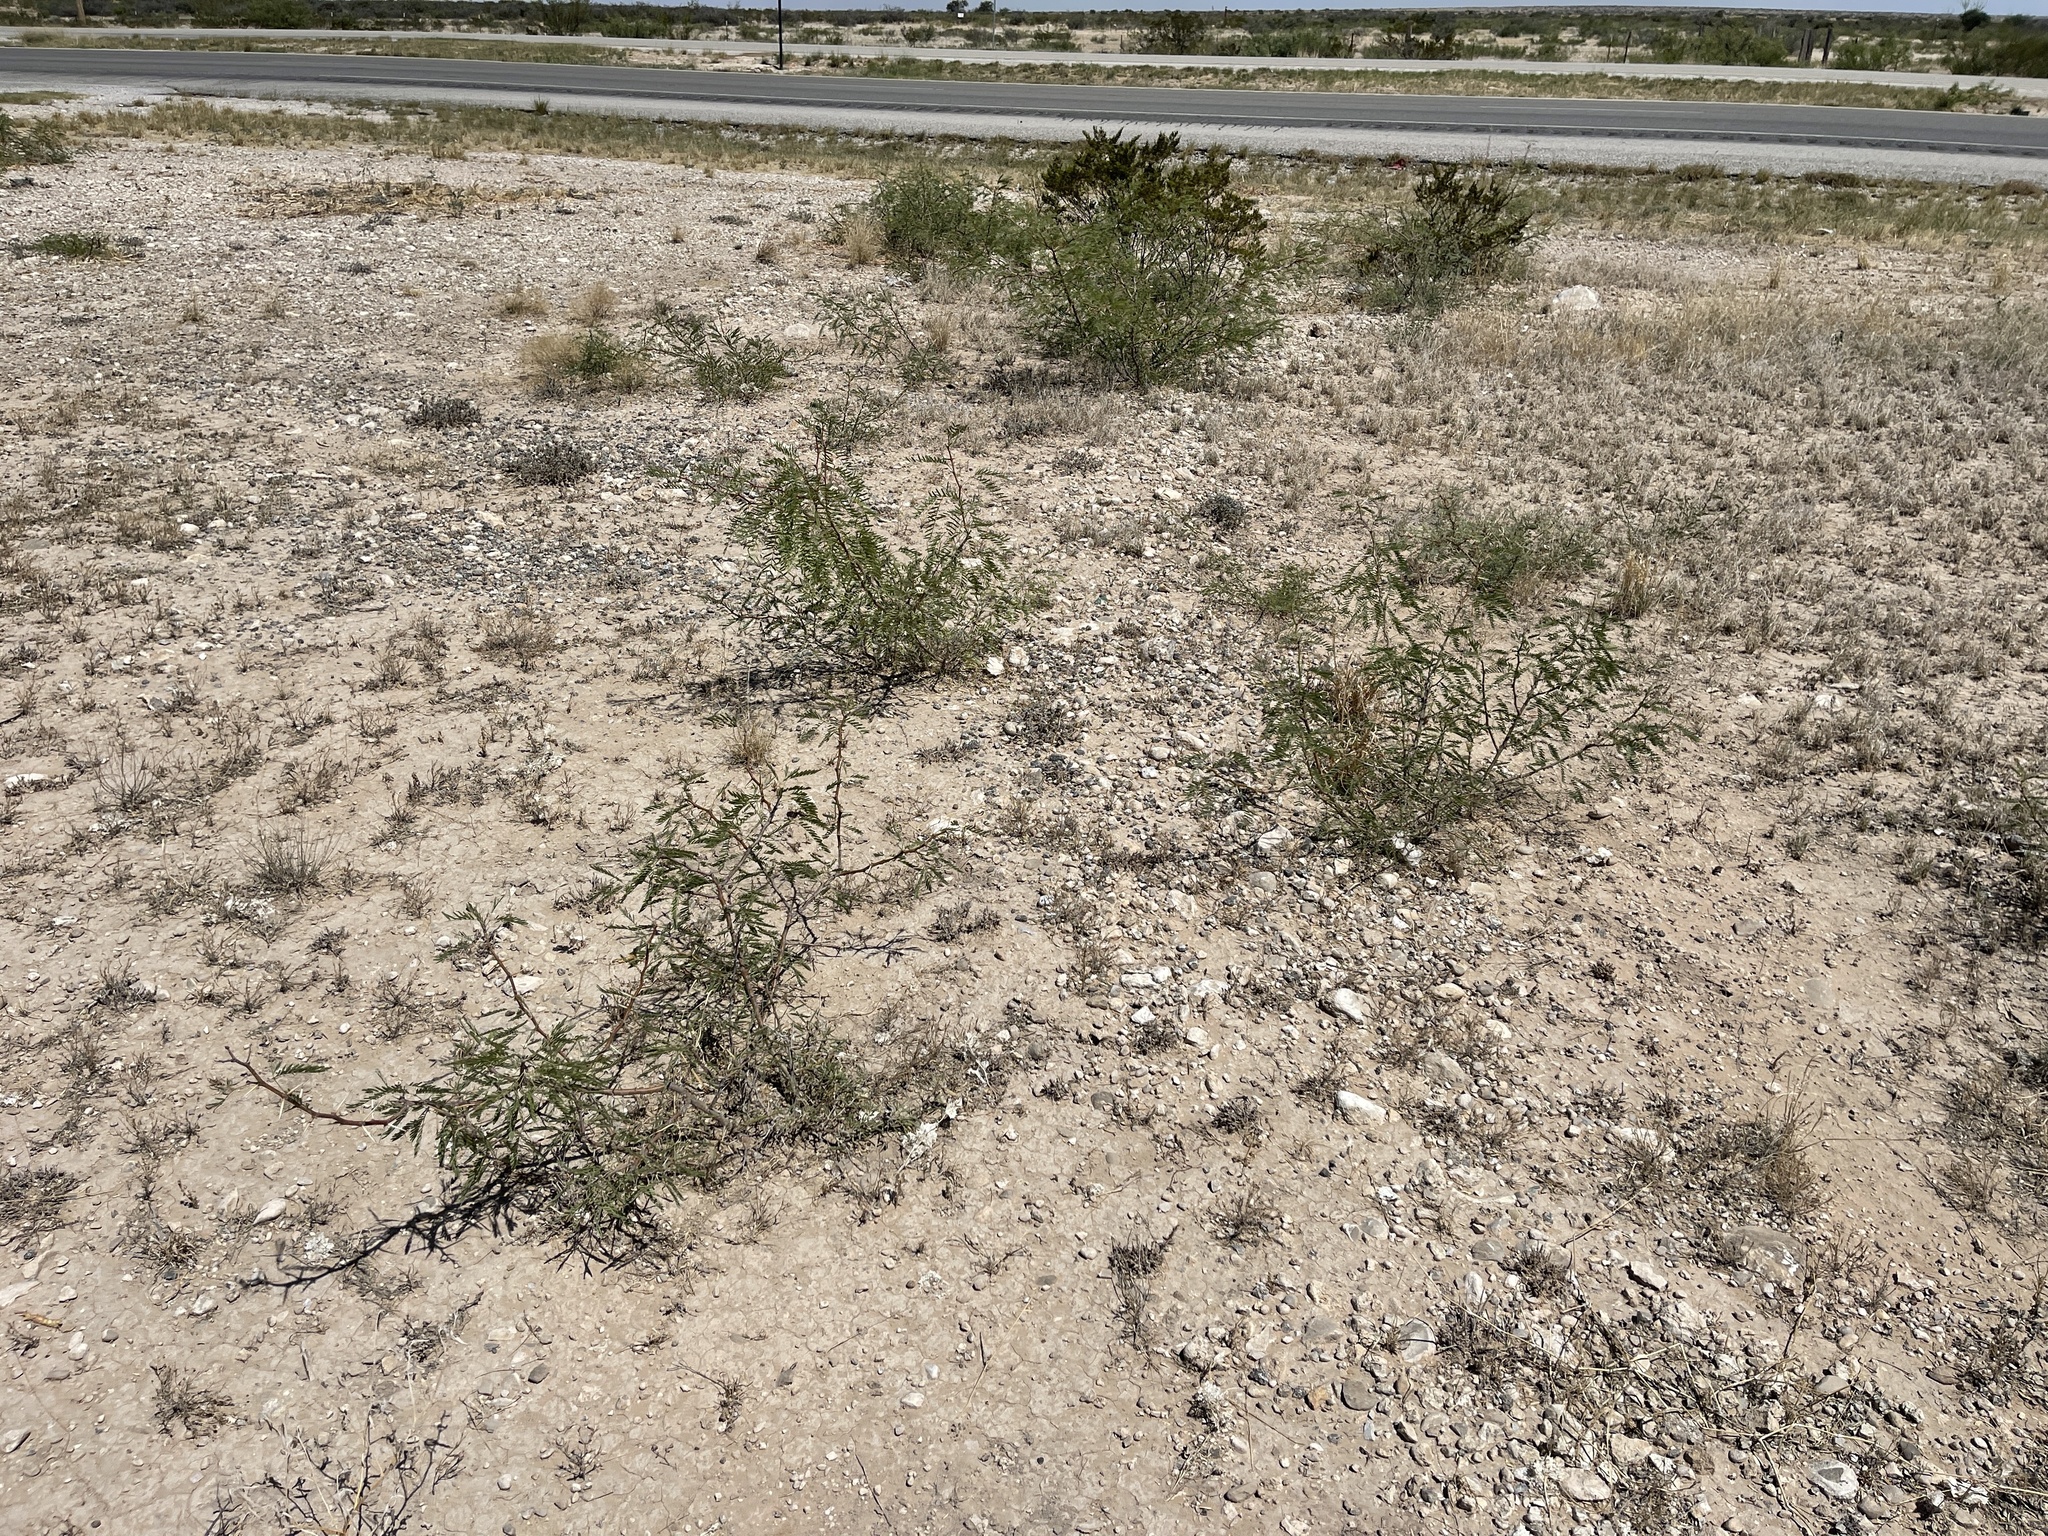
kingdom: Plantae
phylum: Tracheophyta
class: Magnoliopsida
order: Fabales
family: Fabaceae
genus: Prosopis
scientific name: Prosopis glandulosa
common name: Honey mesquite
